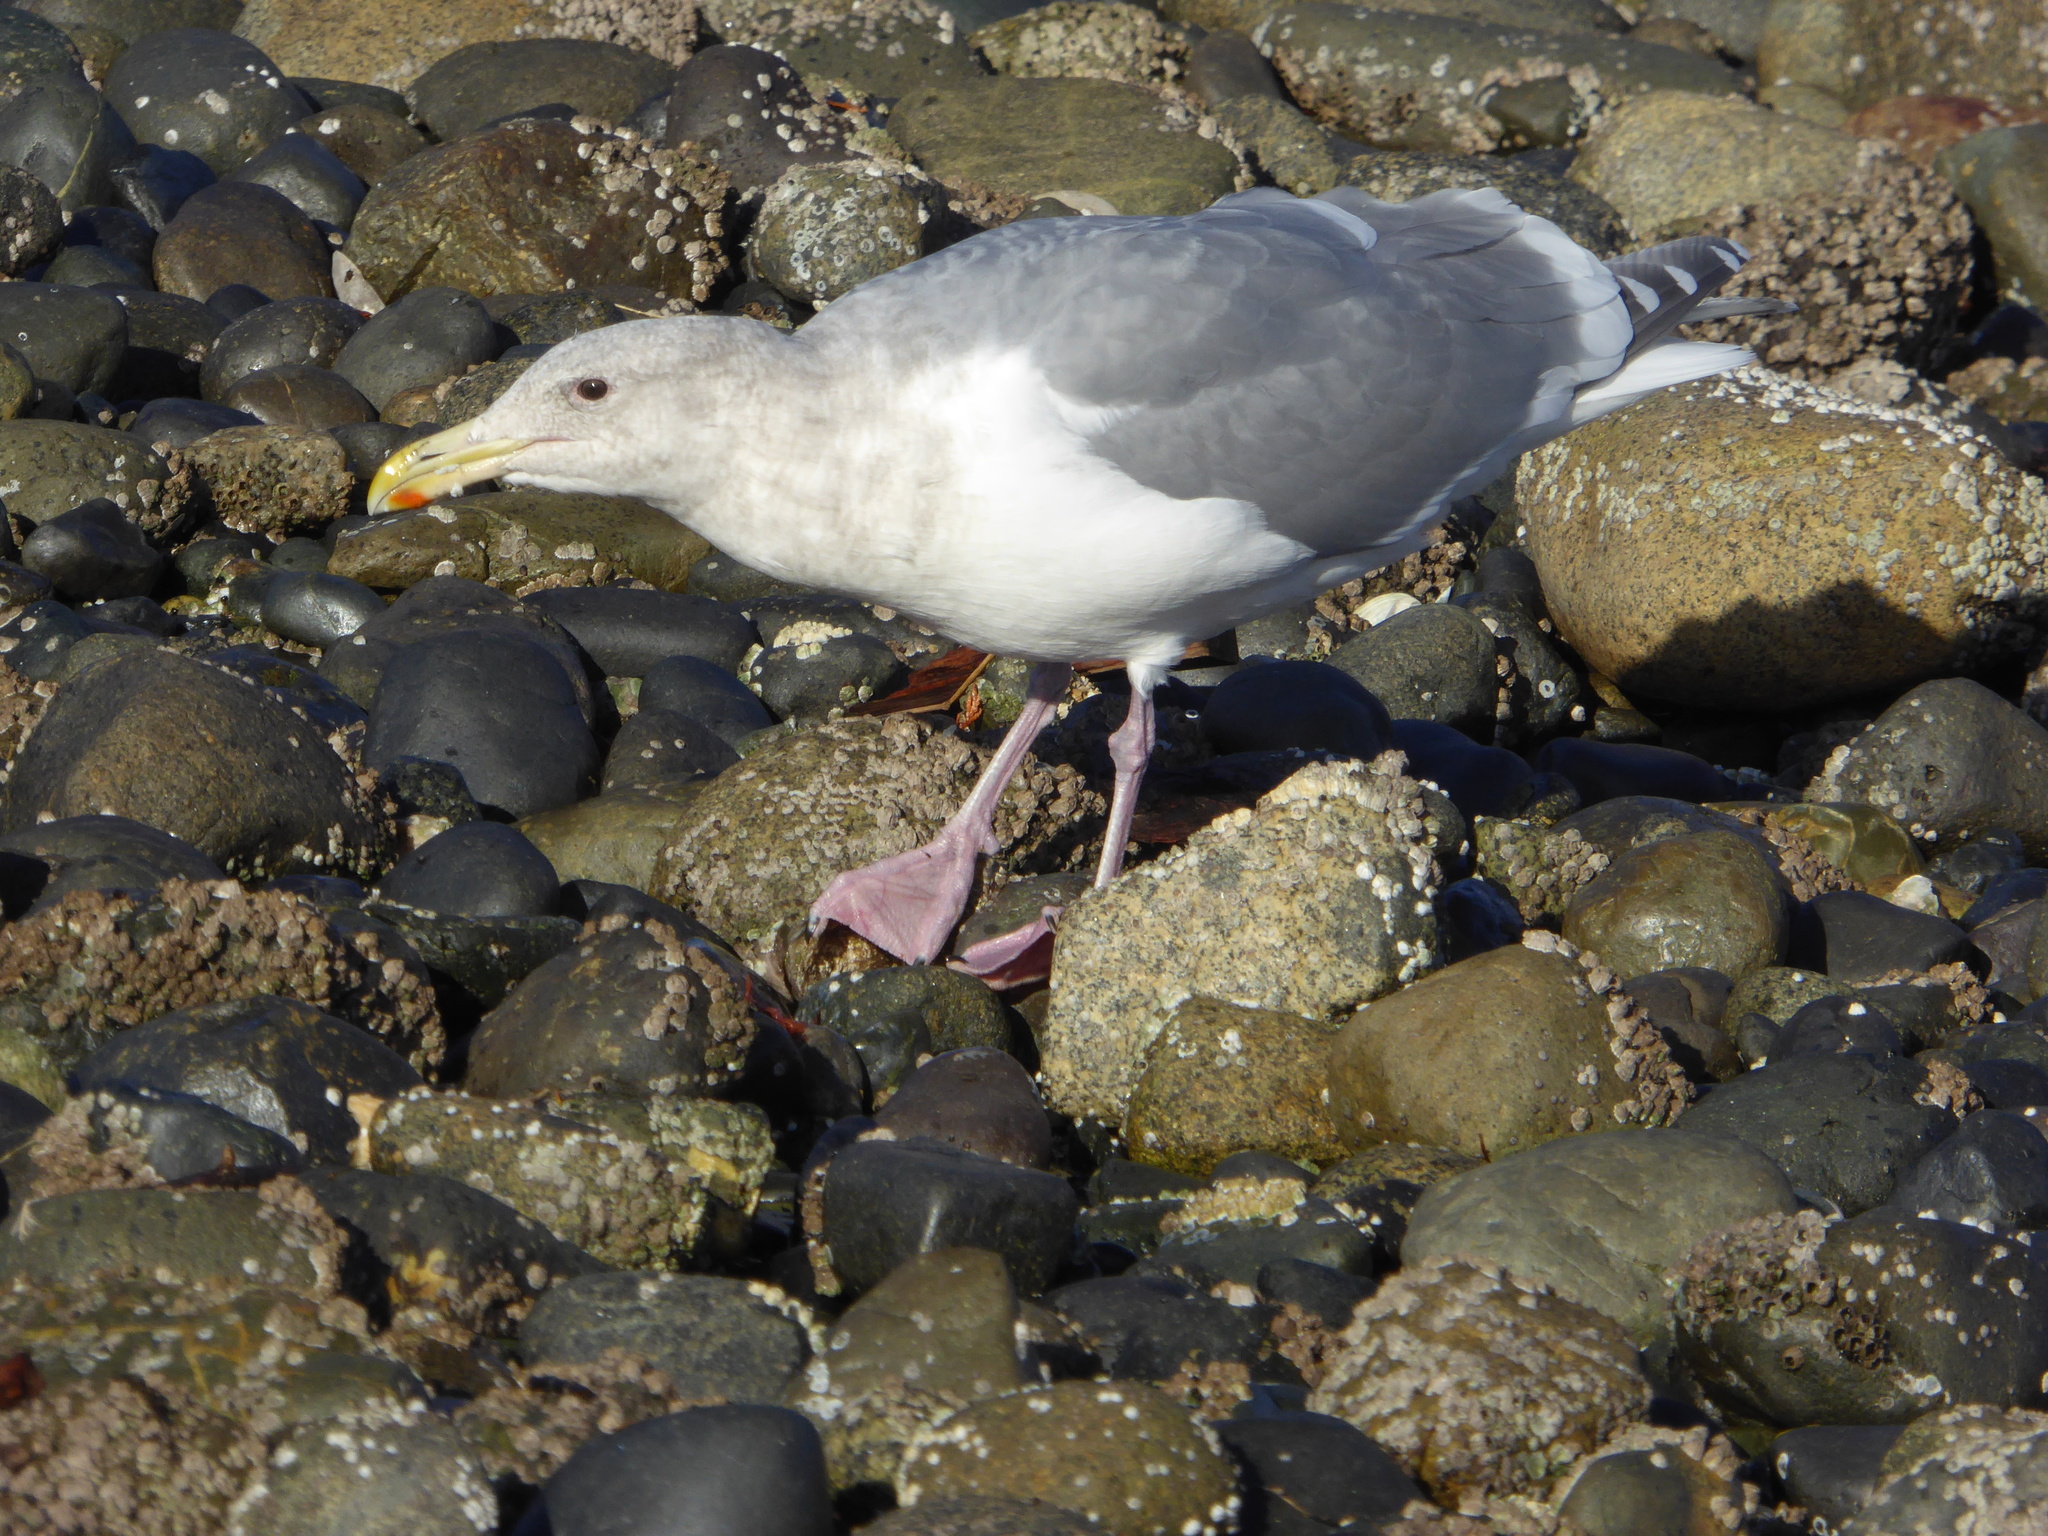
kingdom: Animalia
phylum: Chordata
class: Aves
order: Charadriiformes
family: Laridae
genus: Larus
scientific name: Larus
